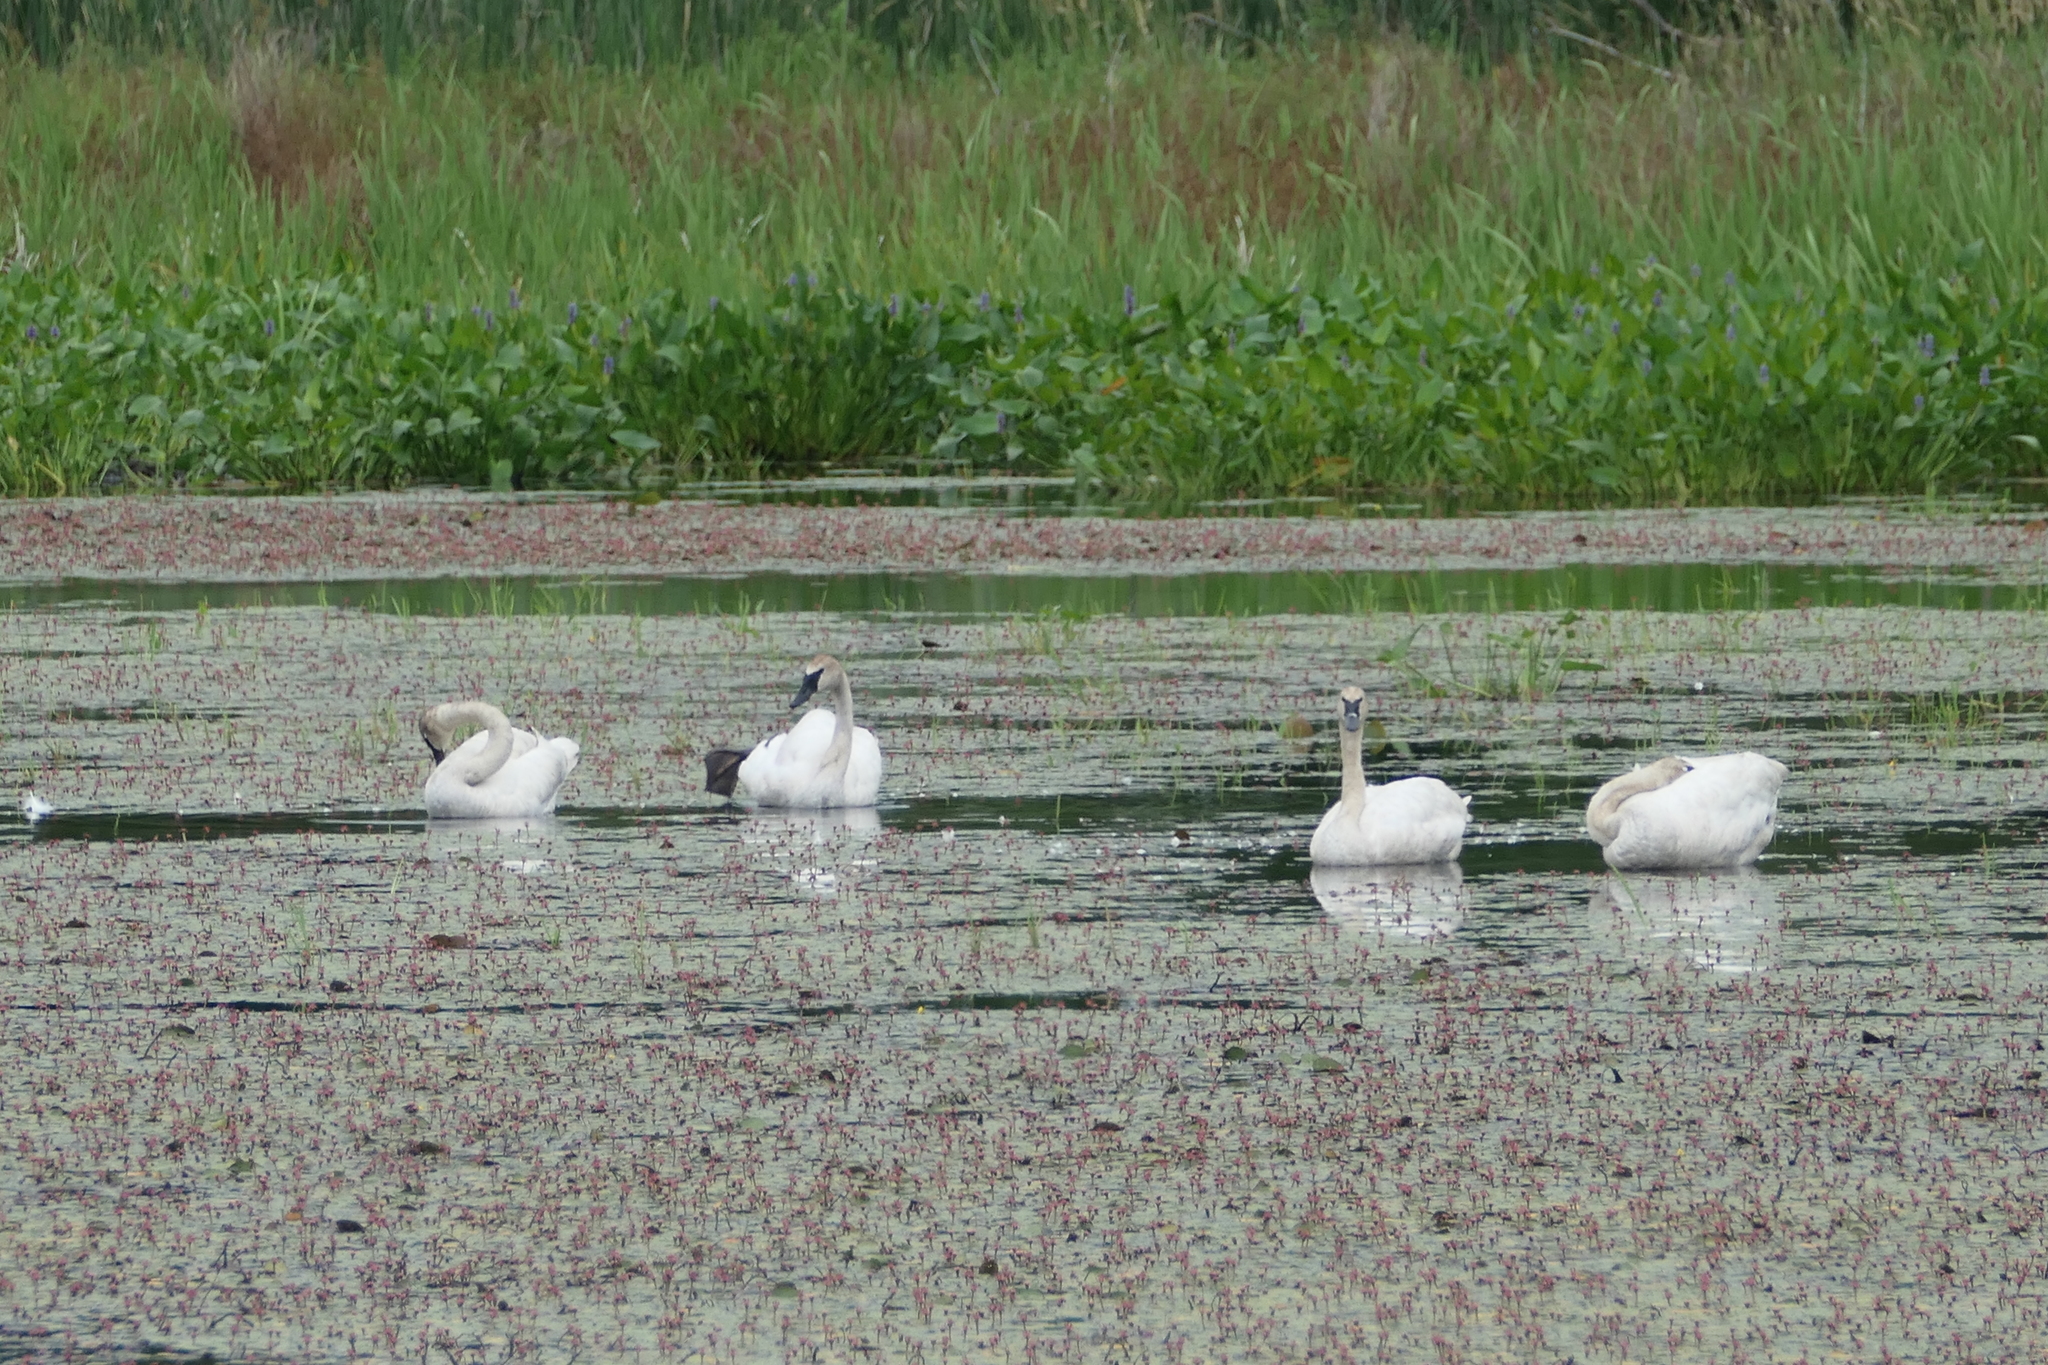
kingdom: Animalia
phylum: Chordata
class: Aves
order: Anseriformes
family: Anatidae
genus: Cygnus
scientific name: Cygnus buccinator
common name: Trumpeter swan
